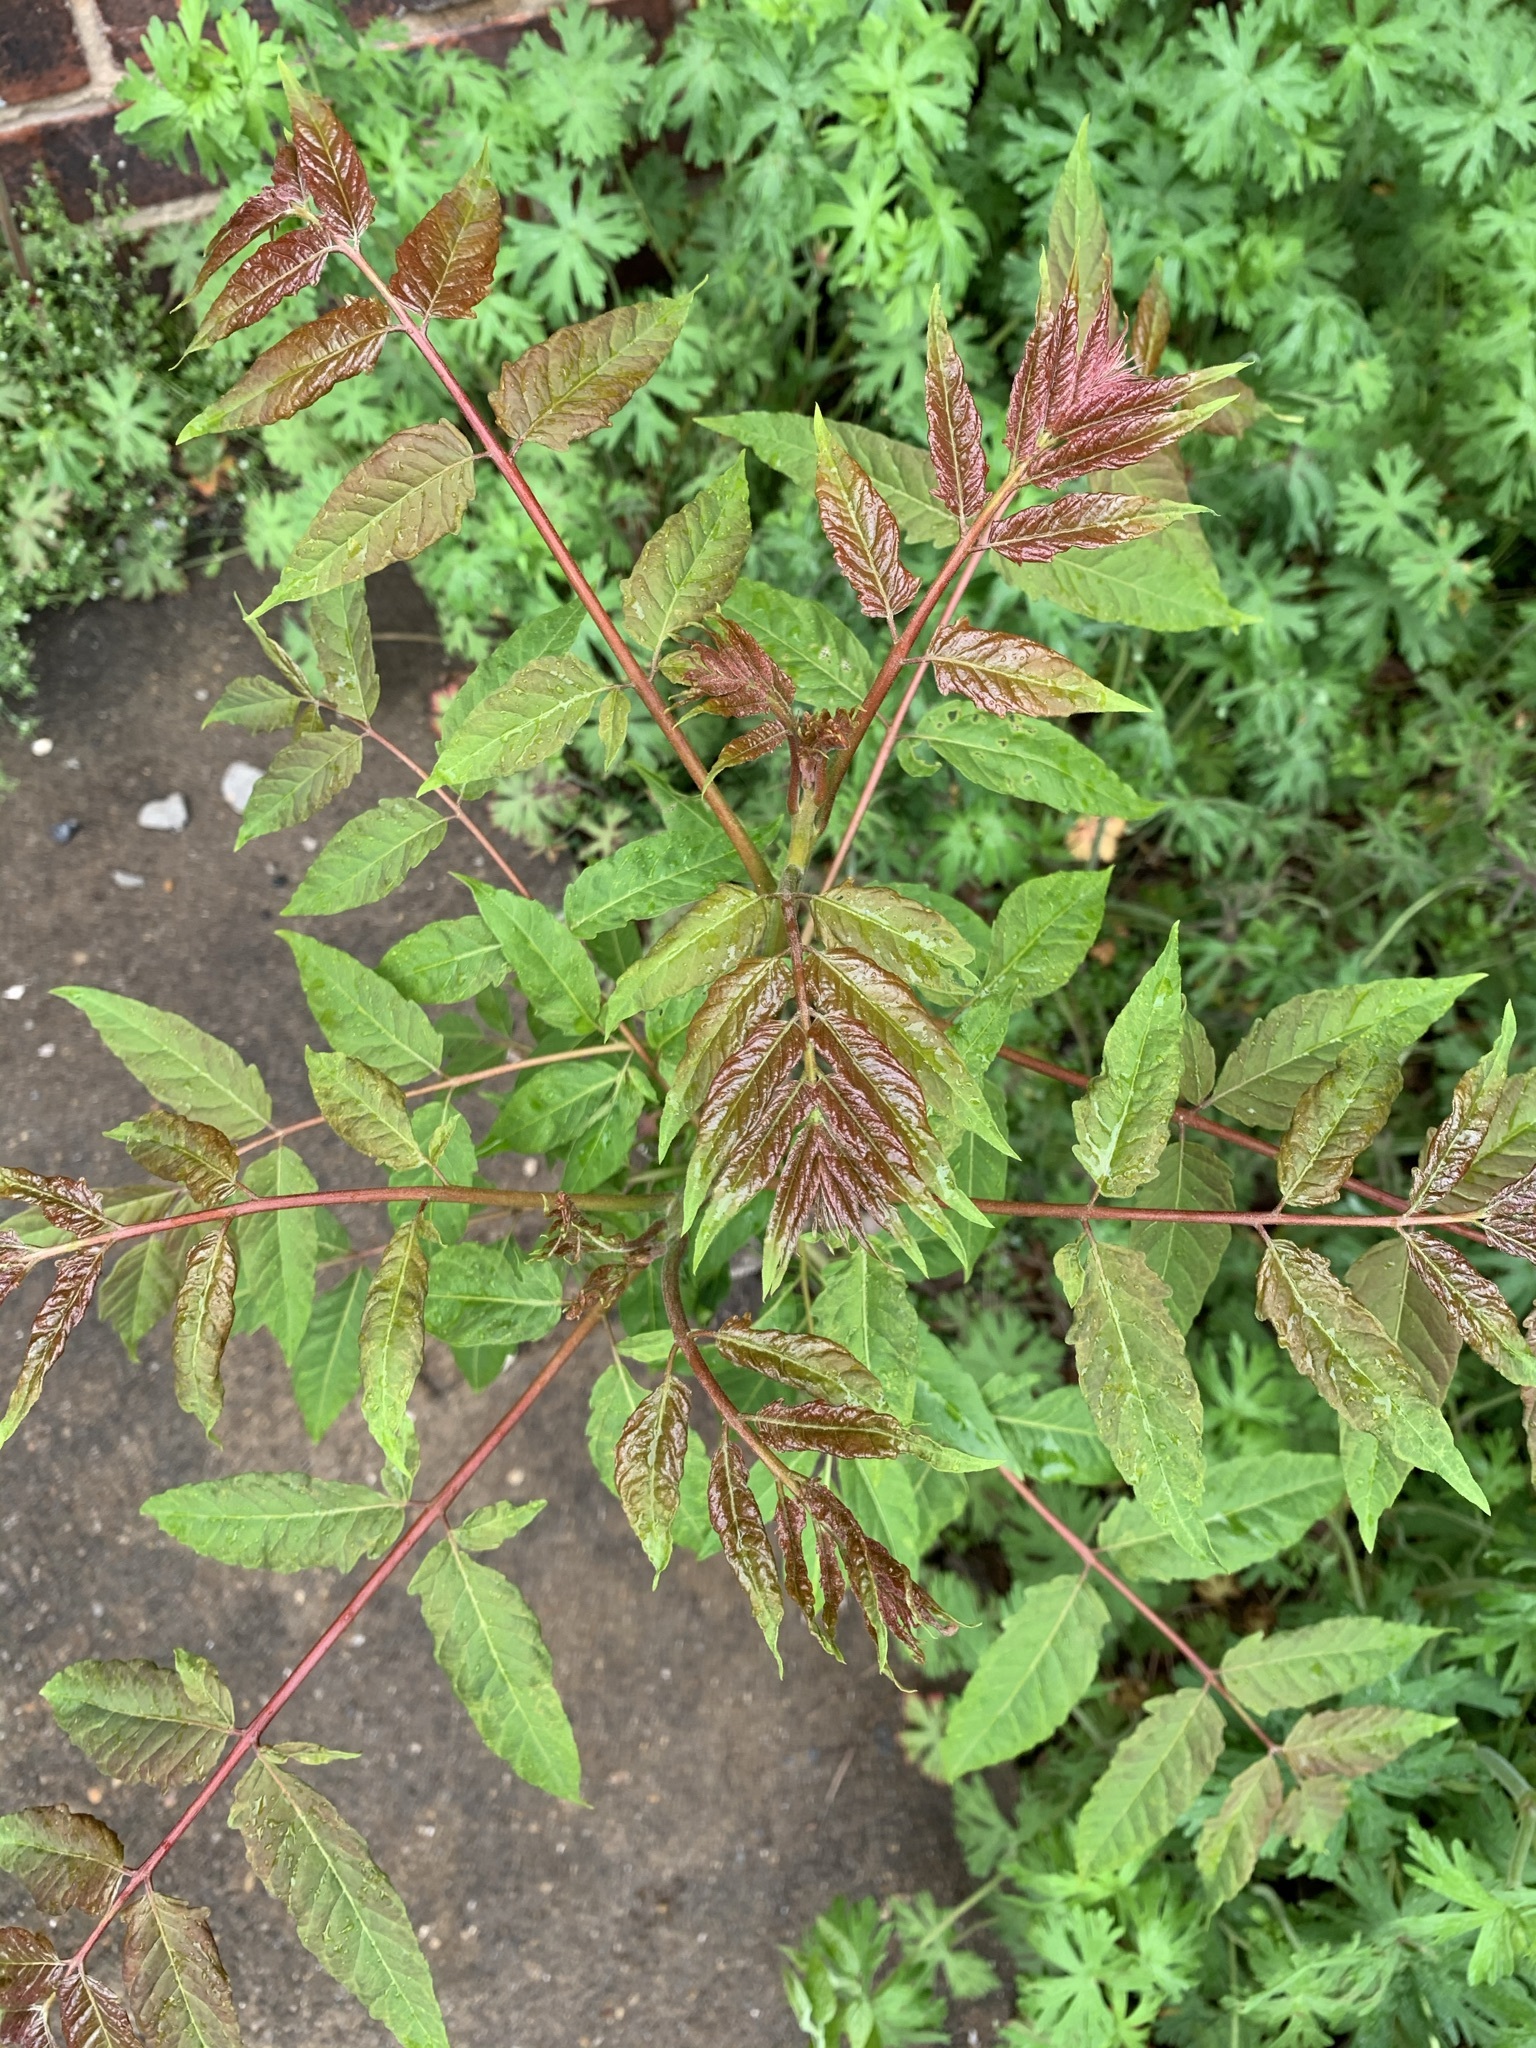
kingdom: Plantae
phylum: Tracheophyta
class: Magnoliopsida
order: Sapindales
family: Simaroubaceae
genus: Ailanthus
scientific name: Ailanthus altissima
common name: Tree-of-heaven
